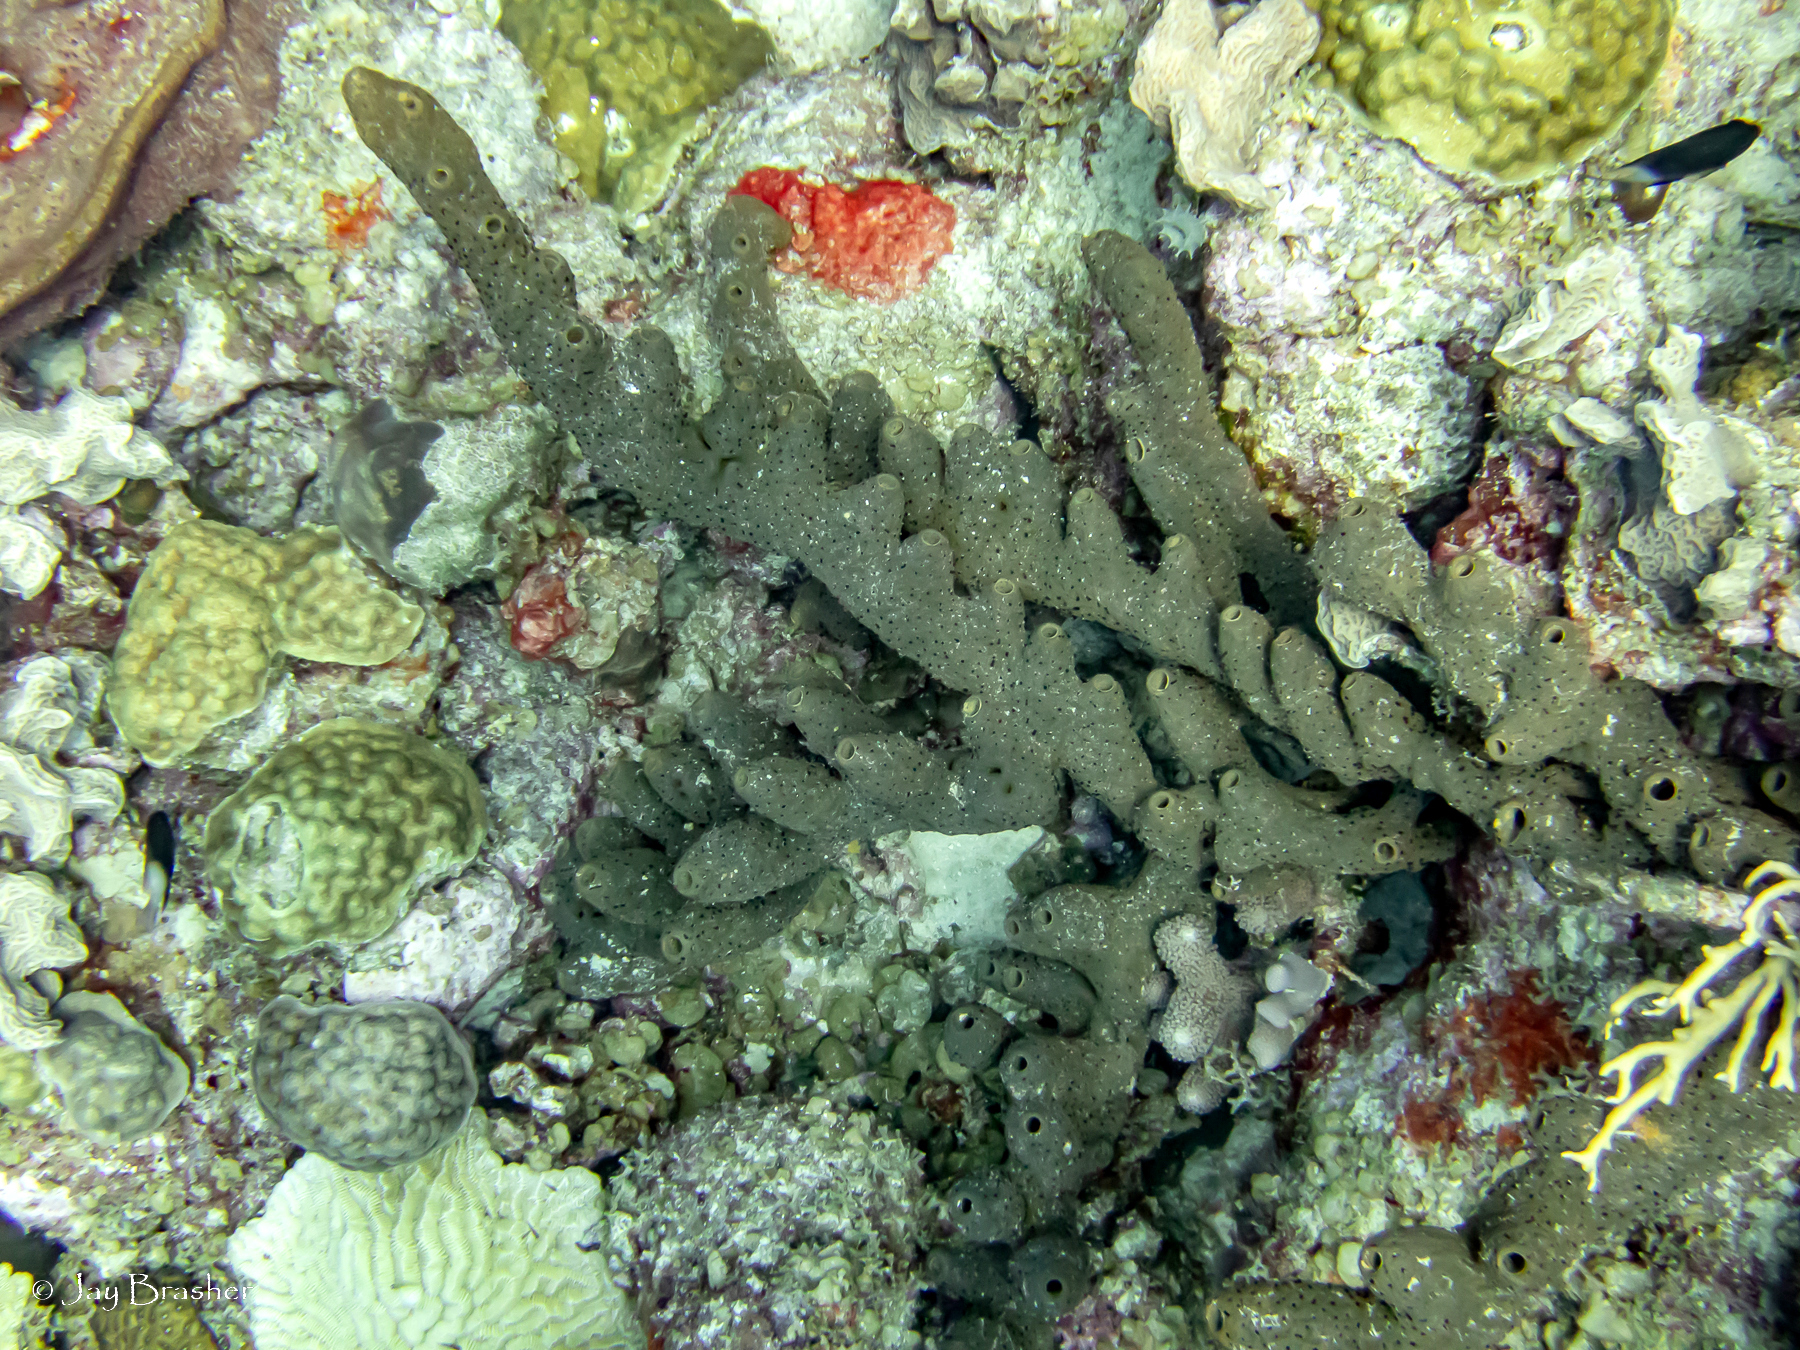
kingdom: Animalia
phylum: Porifera
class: Demospongiae
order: Agelasida
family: Agelasidae
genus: Agelas
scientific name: Agelas conifera
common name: Brown tube sponge
